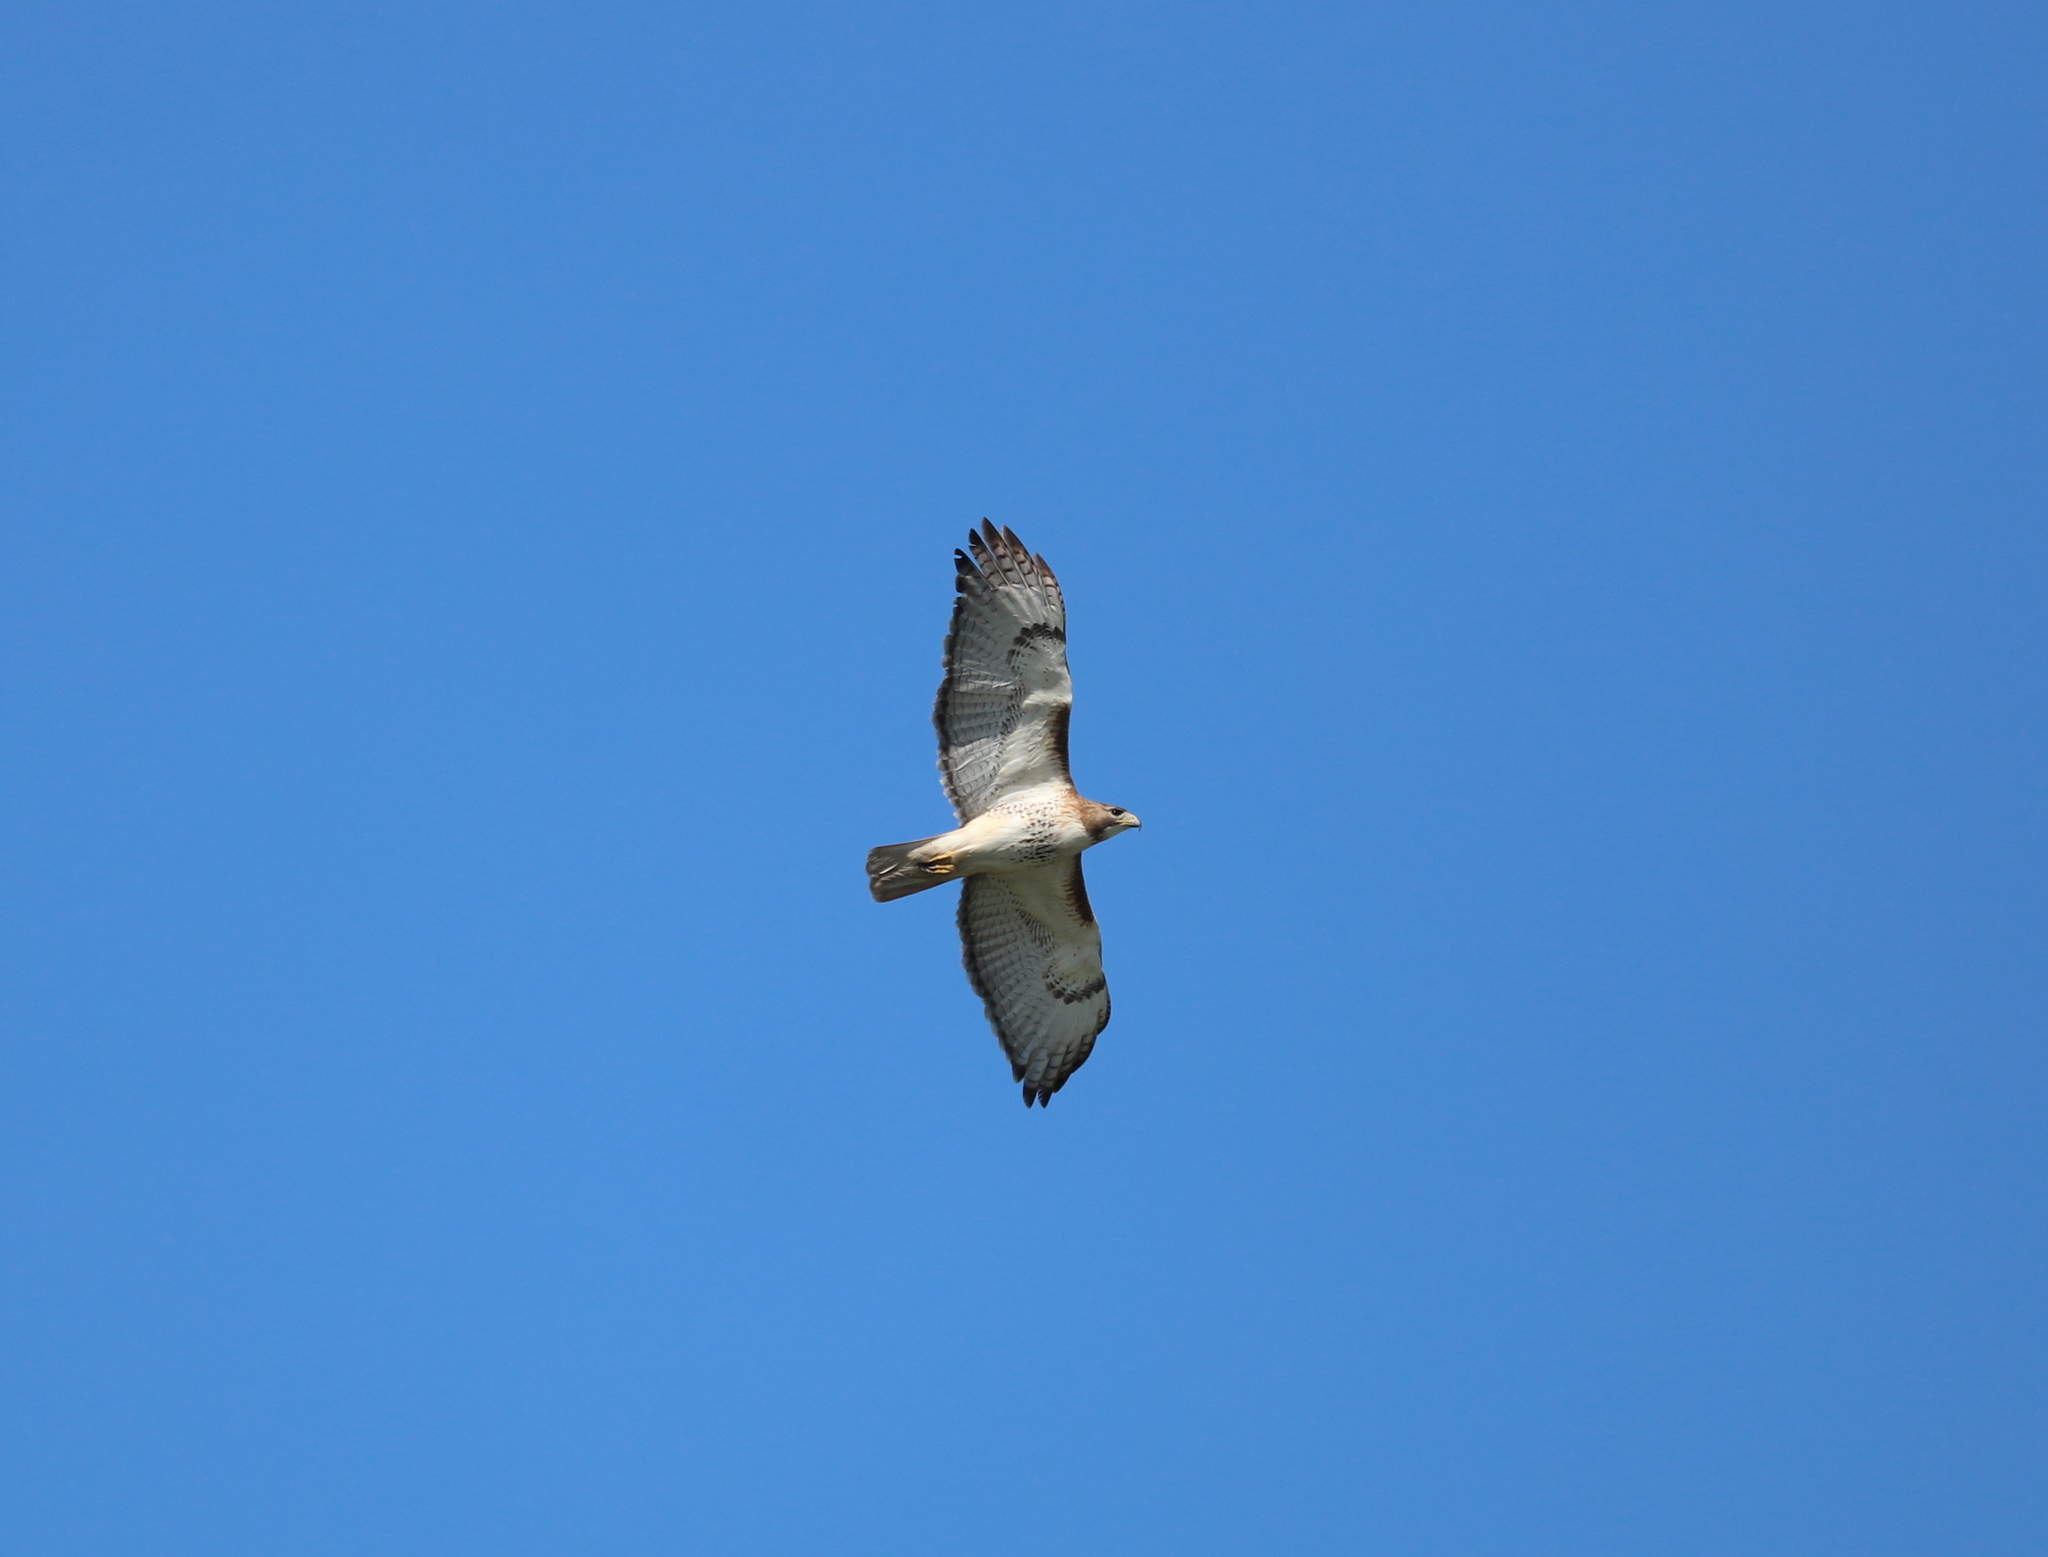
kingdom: Animalia
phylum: Chordata
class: Aves
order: Accipitriformes
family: Accipitridae
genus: Buteo
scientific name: Buteo jamaicensis
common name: Red-tailed hawk
